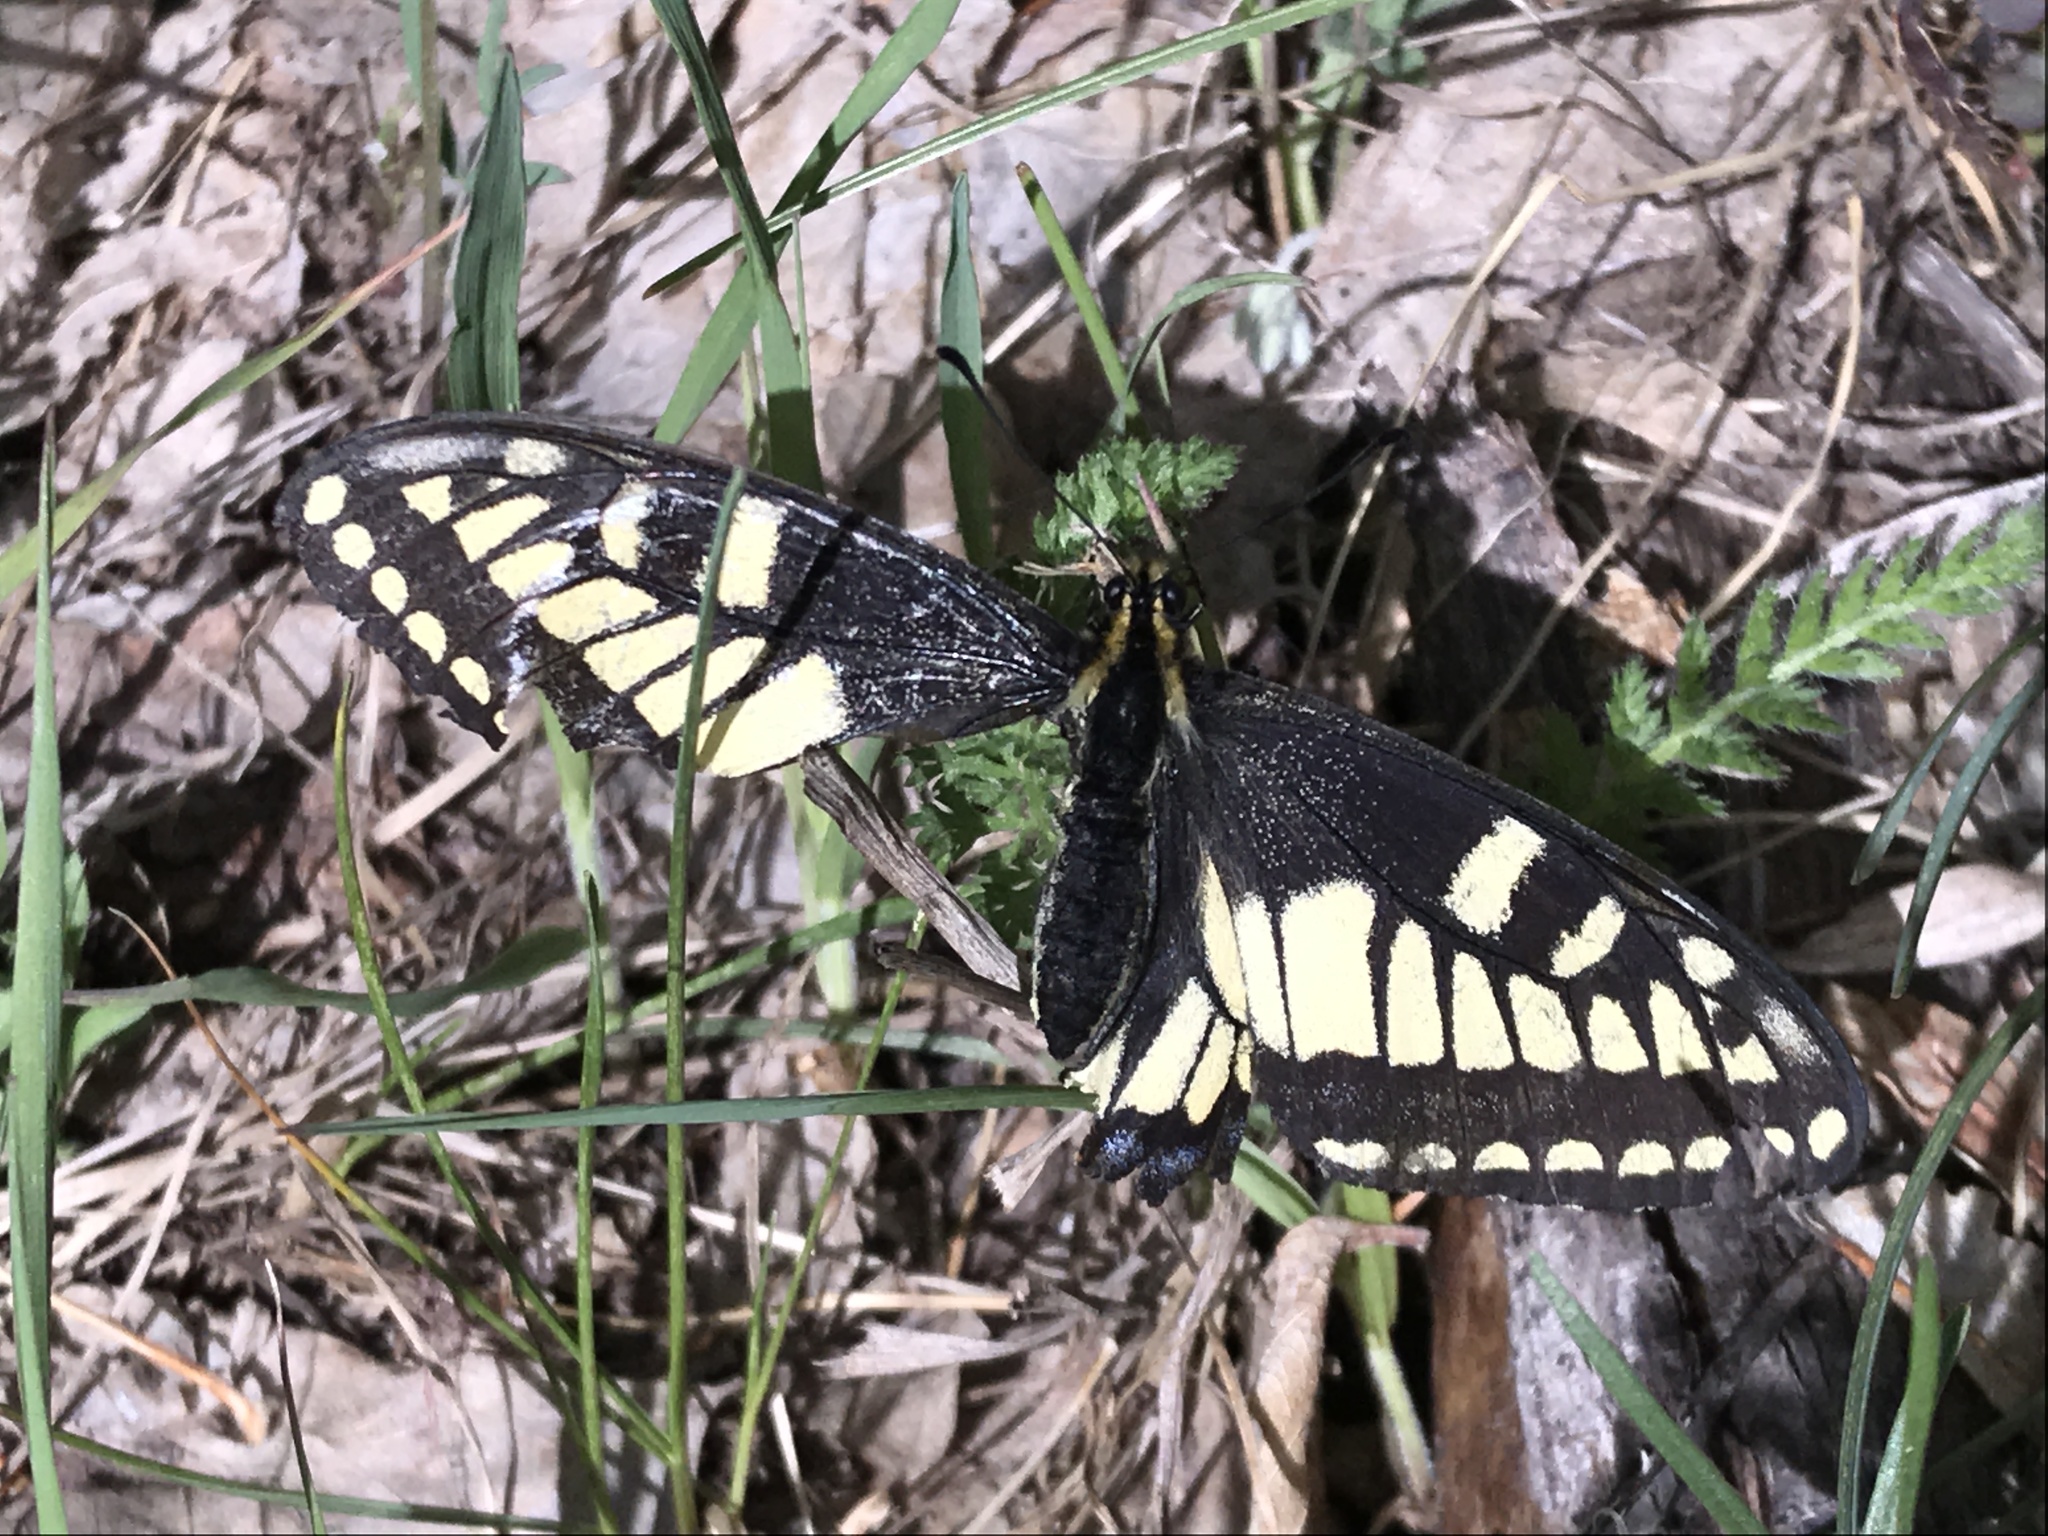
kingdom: Animalia
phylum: Arthropoda
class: Insecta
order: Lepidoptera
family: Papilionidae
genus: Papilio
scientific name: Papilio zelicaon
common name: Anise swallowtail
